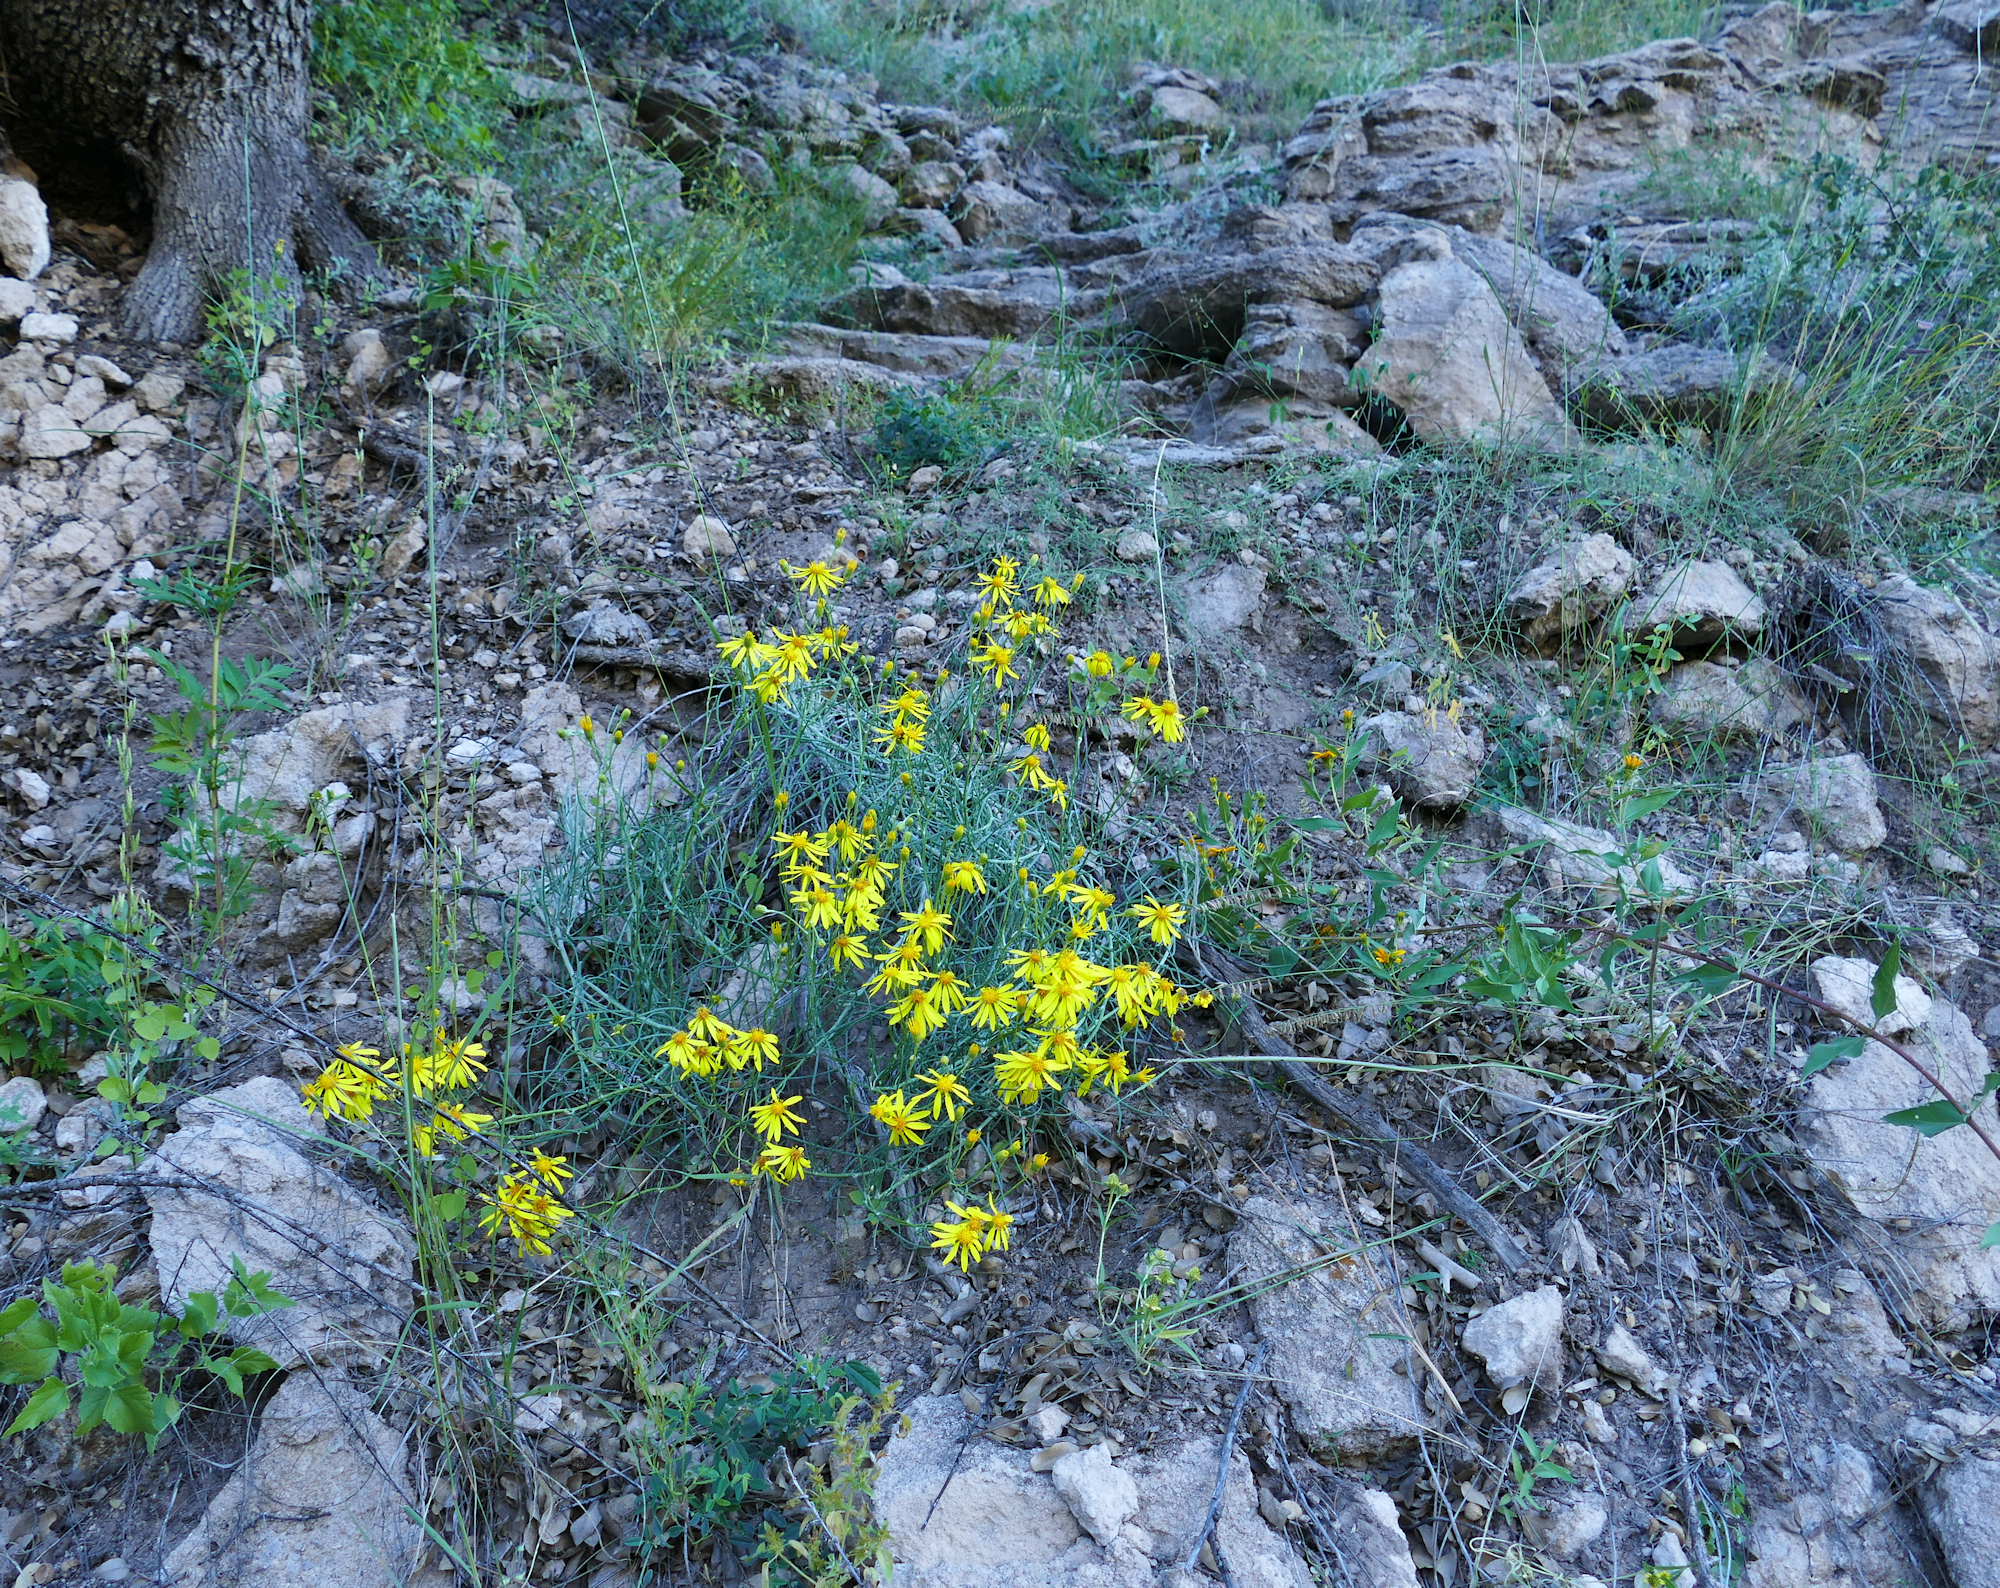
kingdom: Plantae
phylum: Tracheophyta
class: Magnoliopsida
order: Asterales
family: Asteraceae
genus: Senecio
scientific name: Senecio flaccidus
